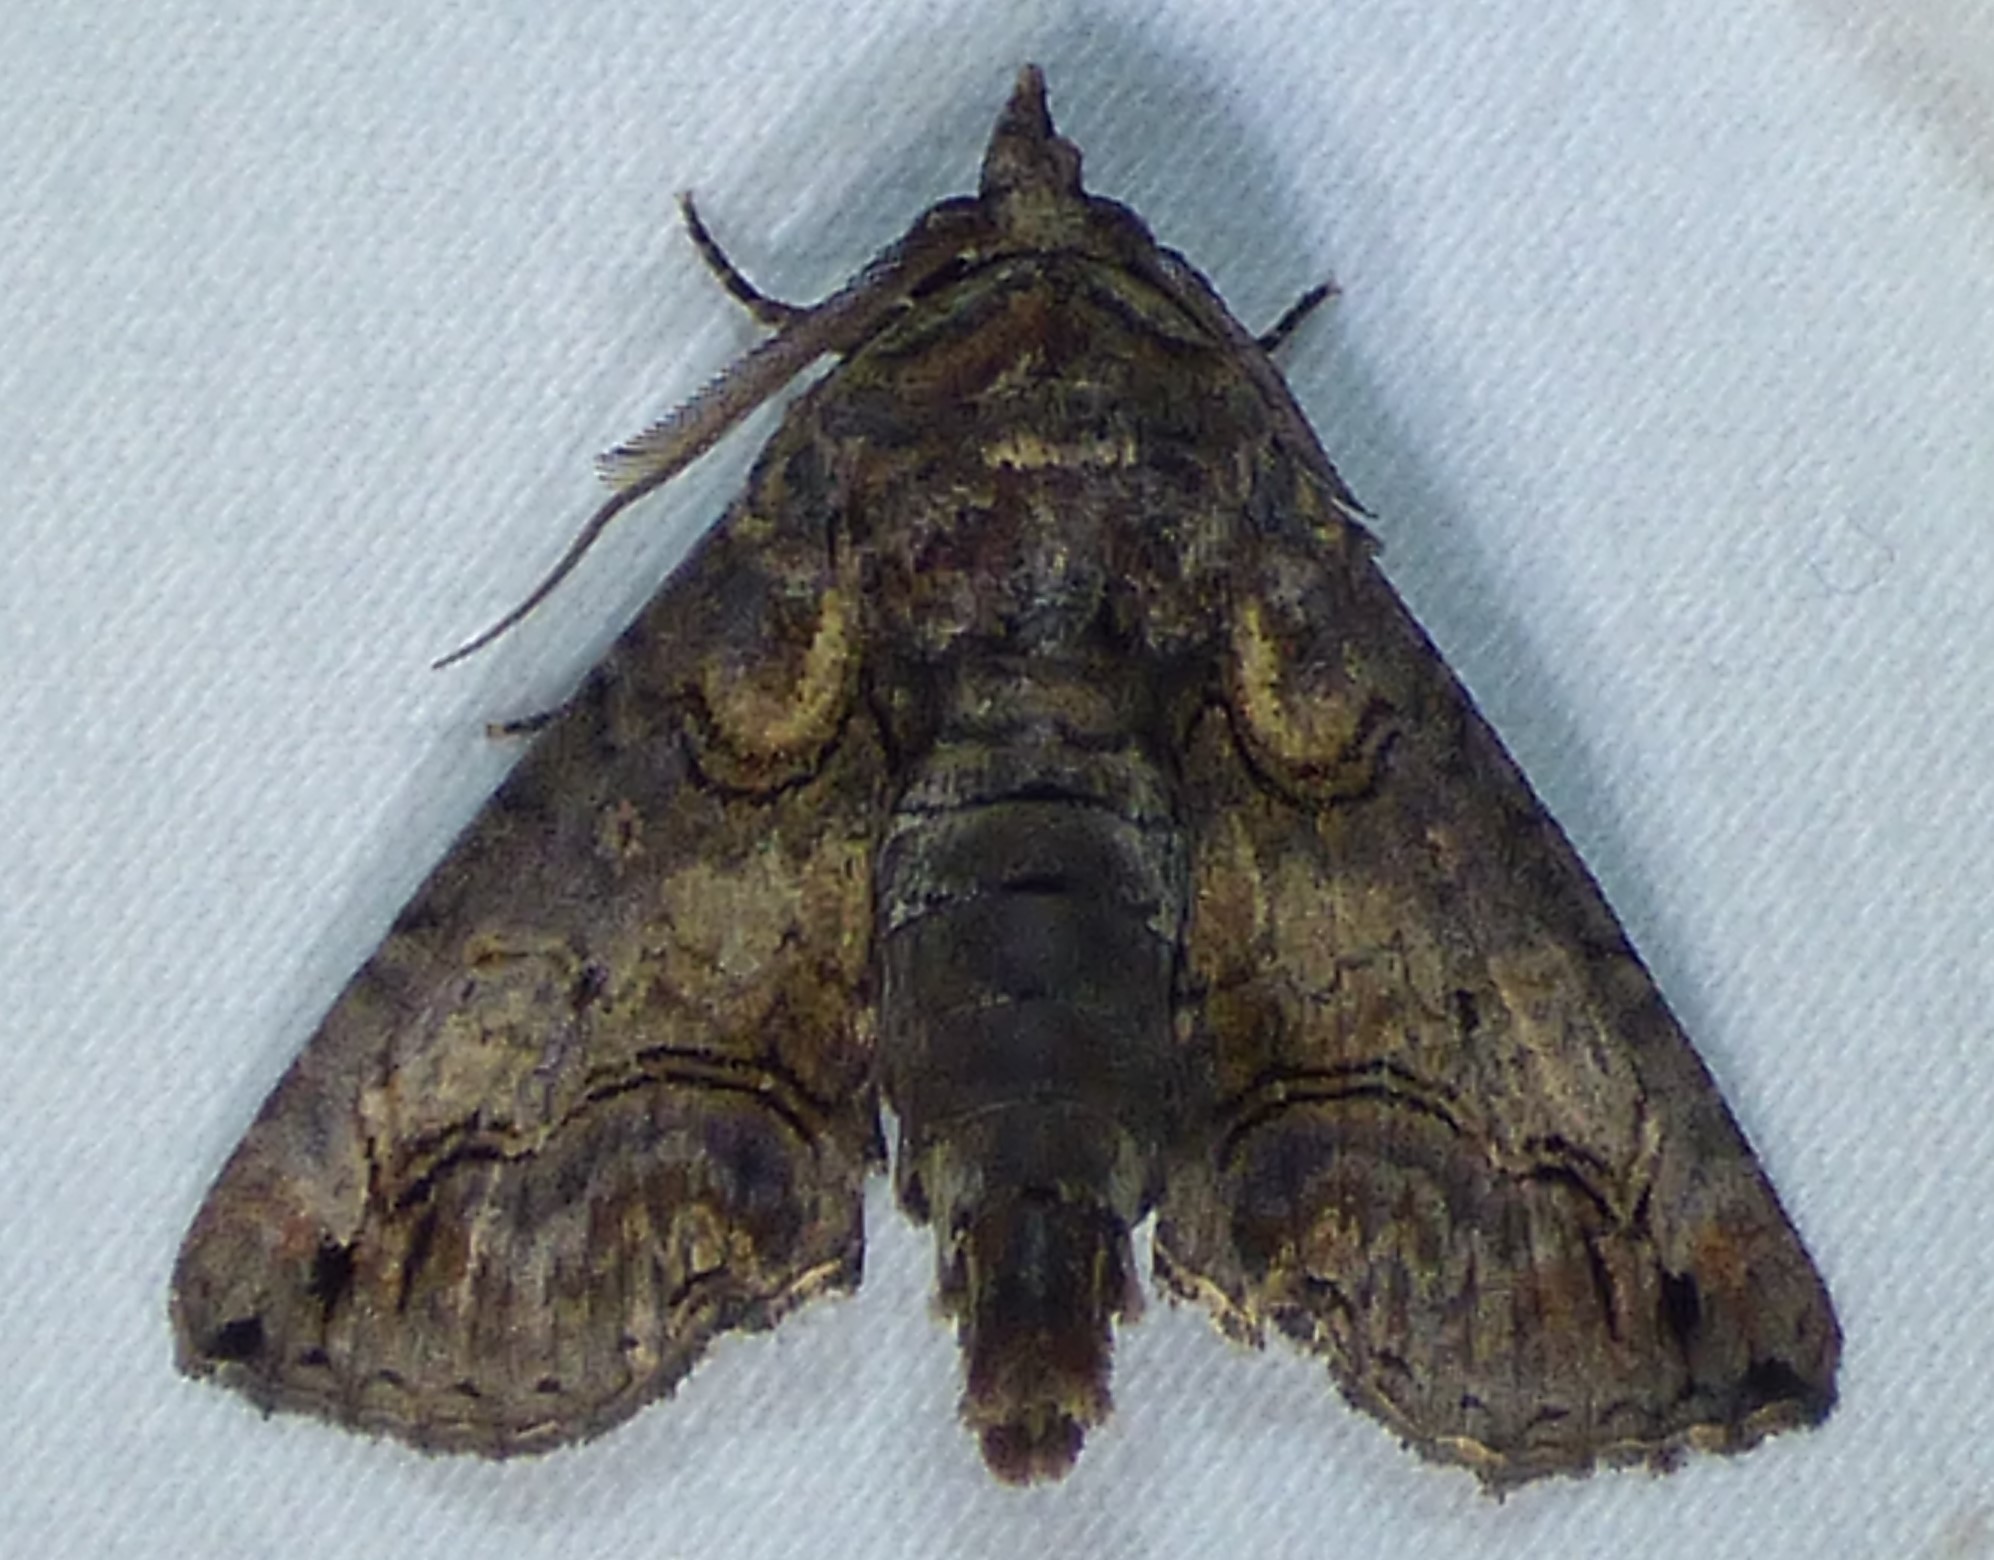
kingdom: Animalia
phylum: Arthropoda
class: Insecta
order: Lepidoptera
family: Euteliidae
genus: Paectes
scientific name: Paectes abrostoloides
